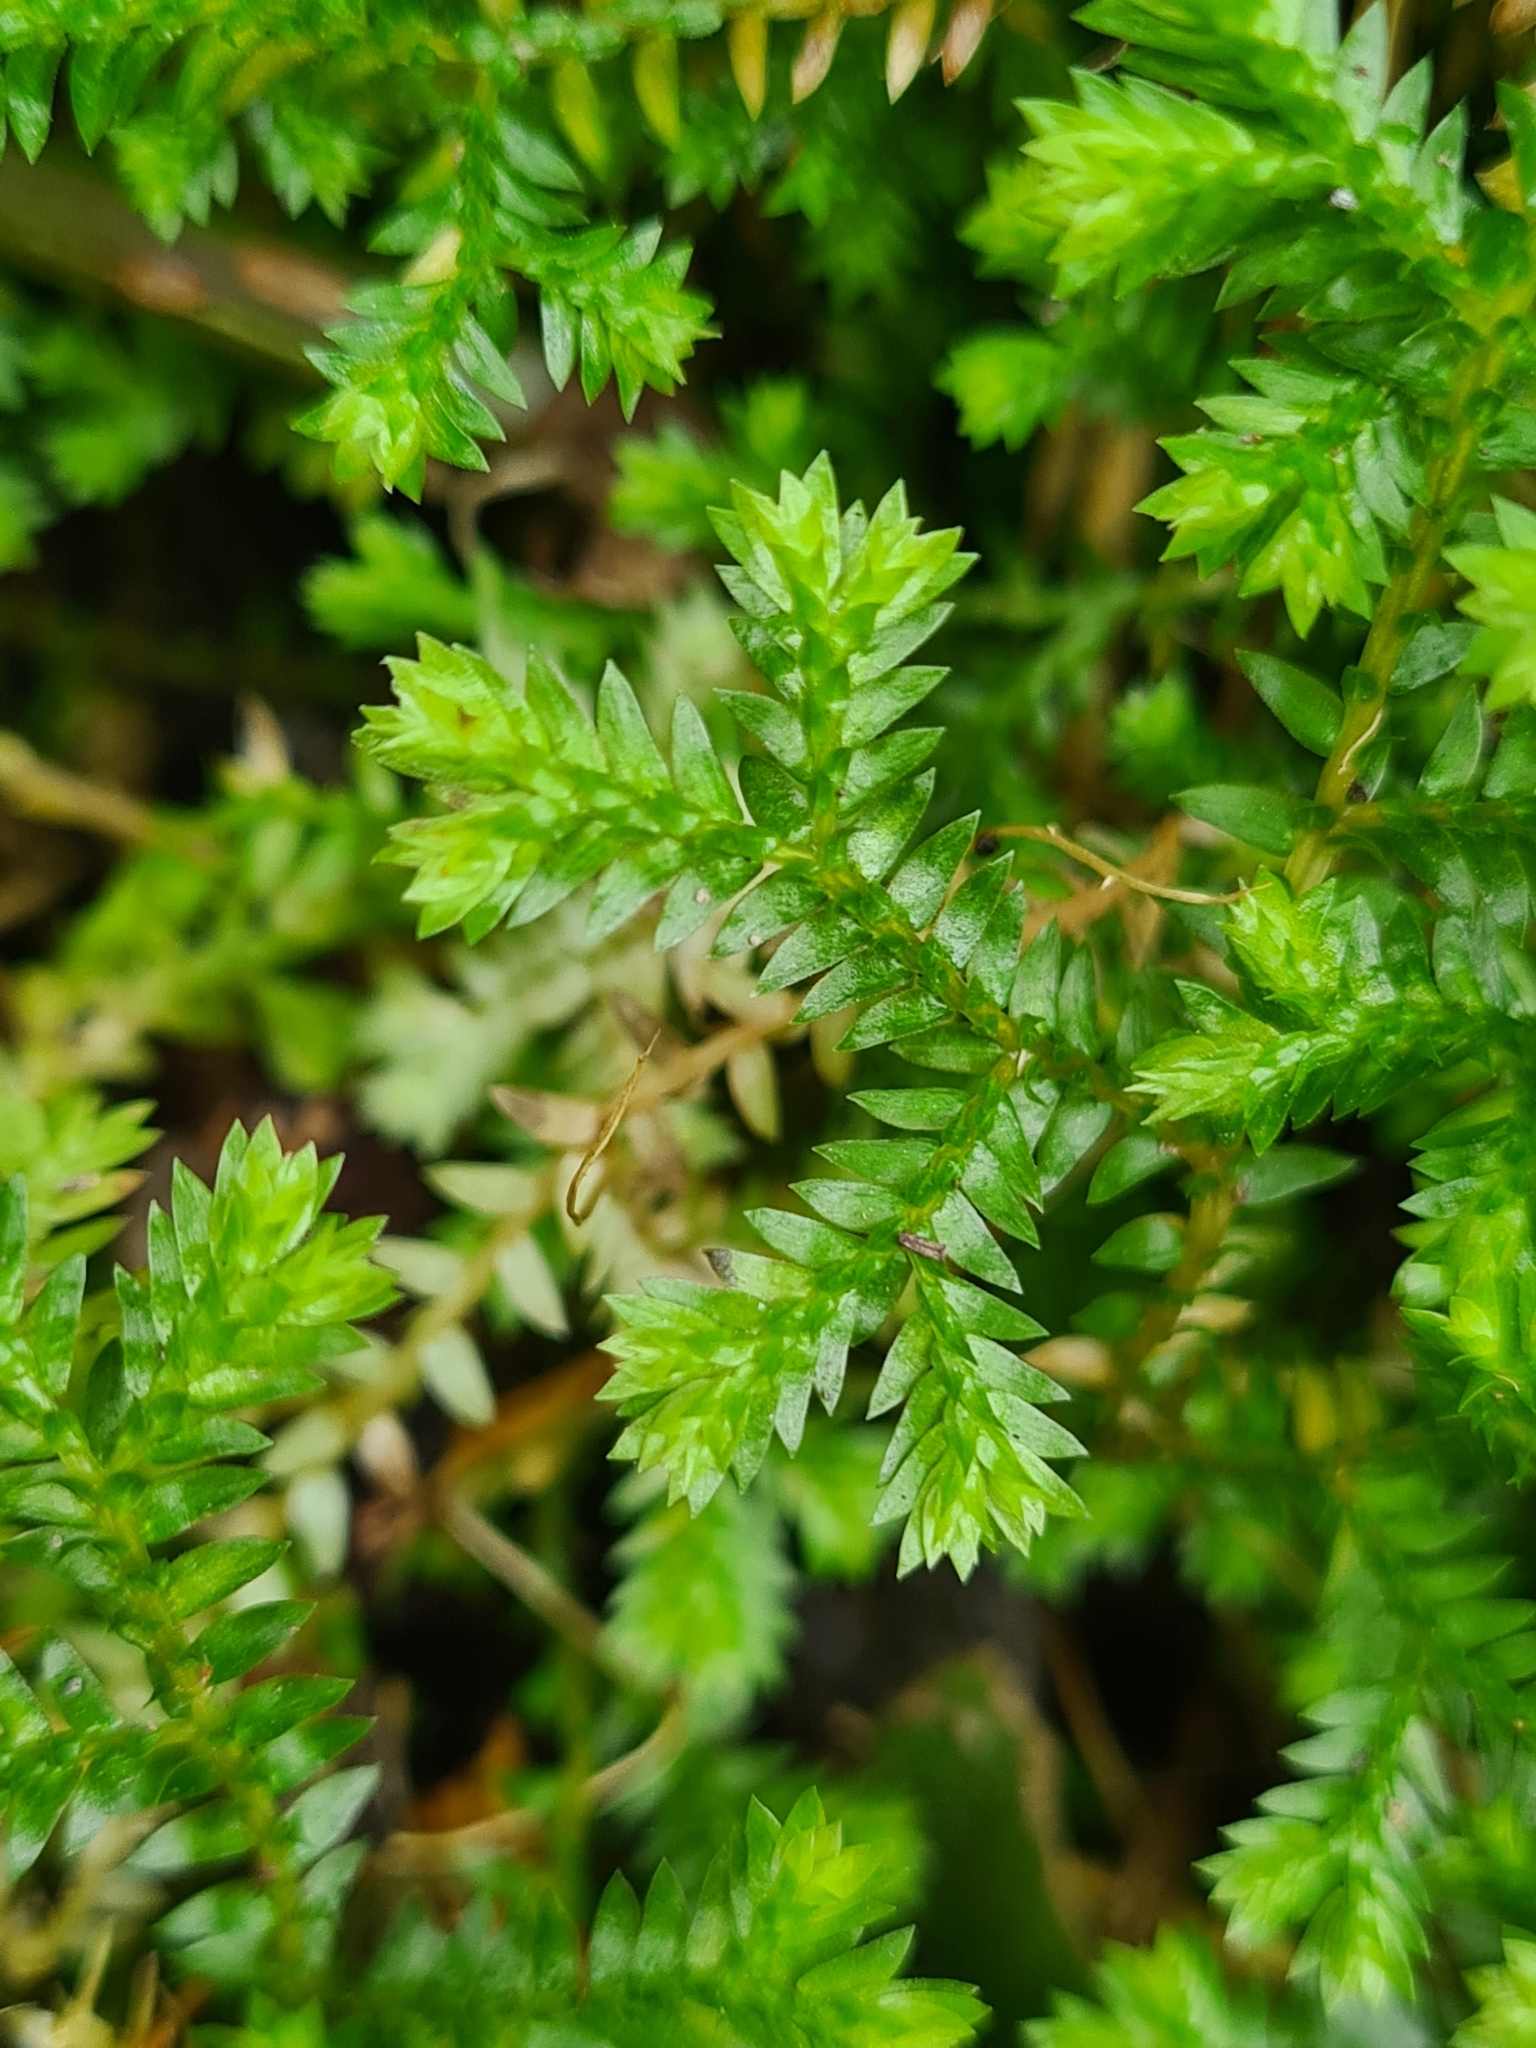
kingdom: Plantae
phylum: Tracheophyta
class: Lycopodiopsida
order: Selaginellales
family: Selaginellaceae
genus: Selaginella
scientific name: Selaginella kraussiana
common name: Krauss' spikemoss
